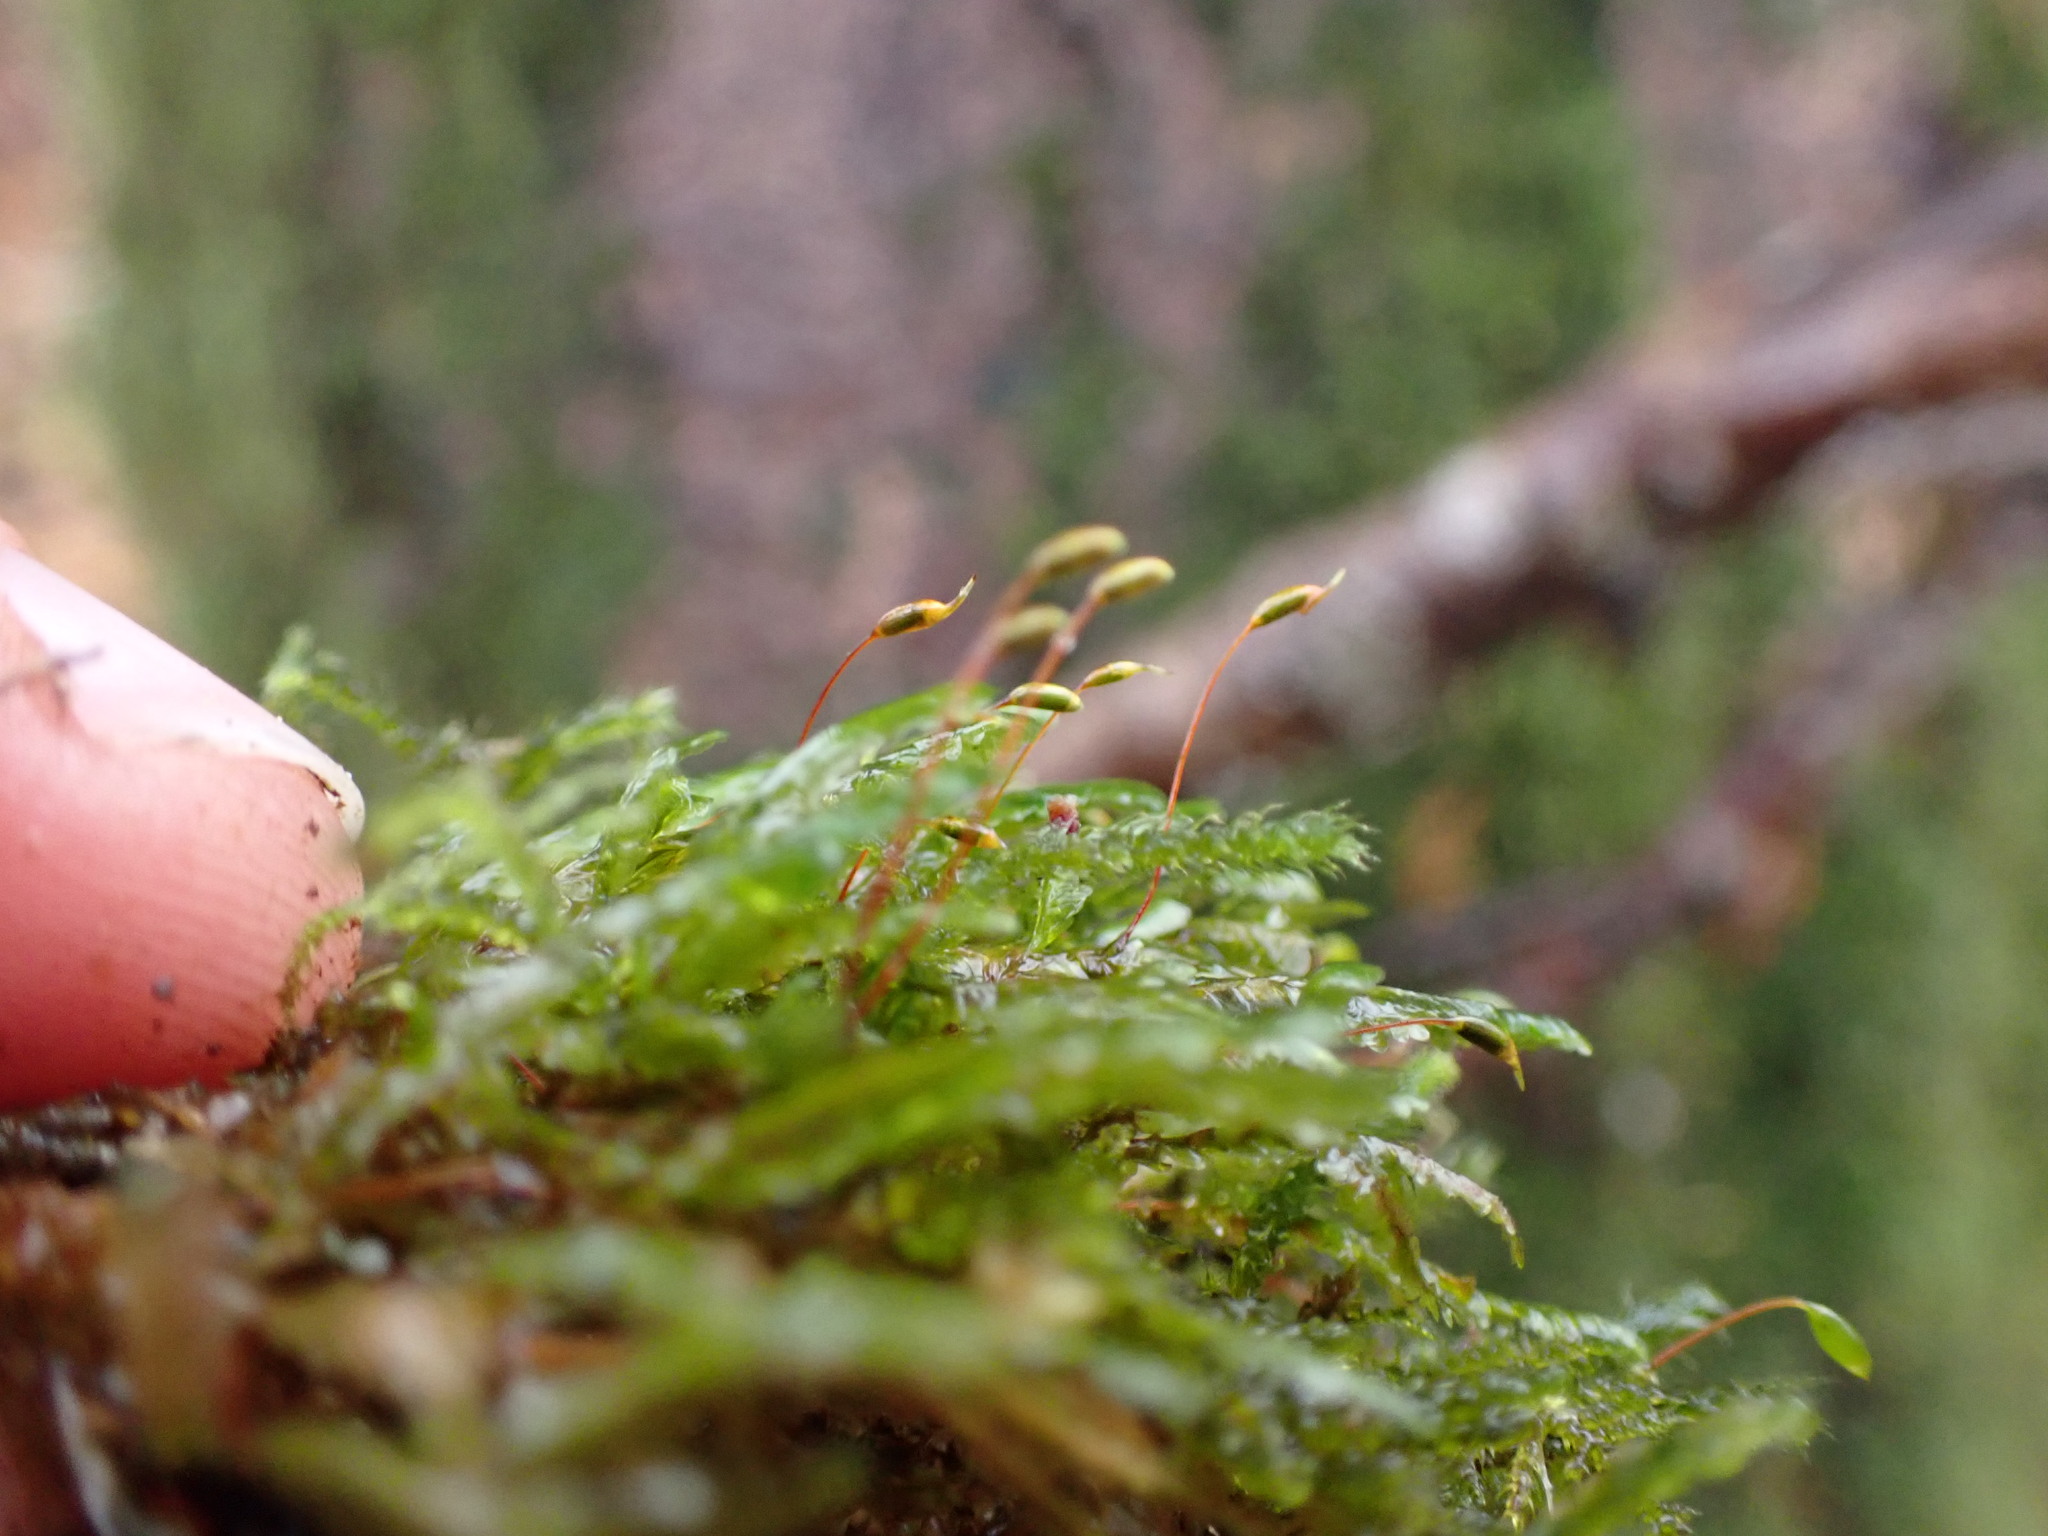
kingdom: Plantae
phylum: Bryophyta
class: Bryopsida
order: Hypnales
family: Neckeraceae
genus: Homalia
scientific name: Homalia trichomanoides
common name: Lime homalia moss
